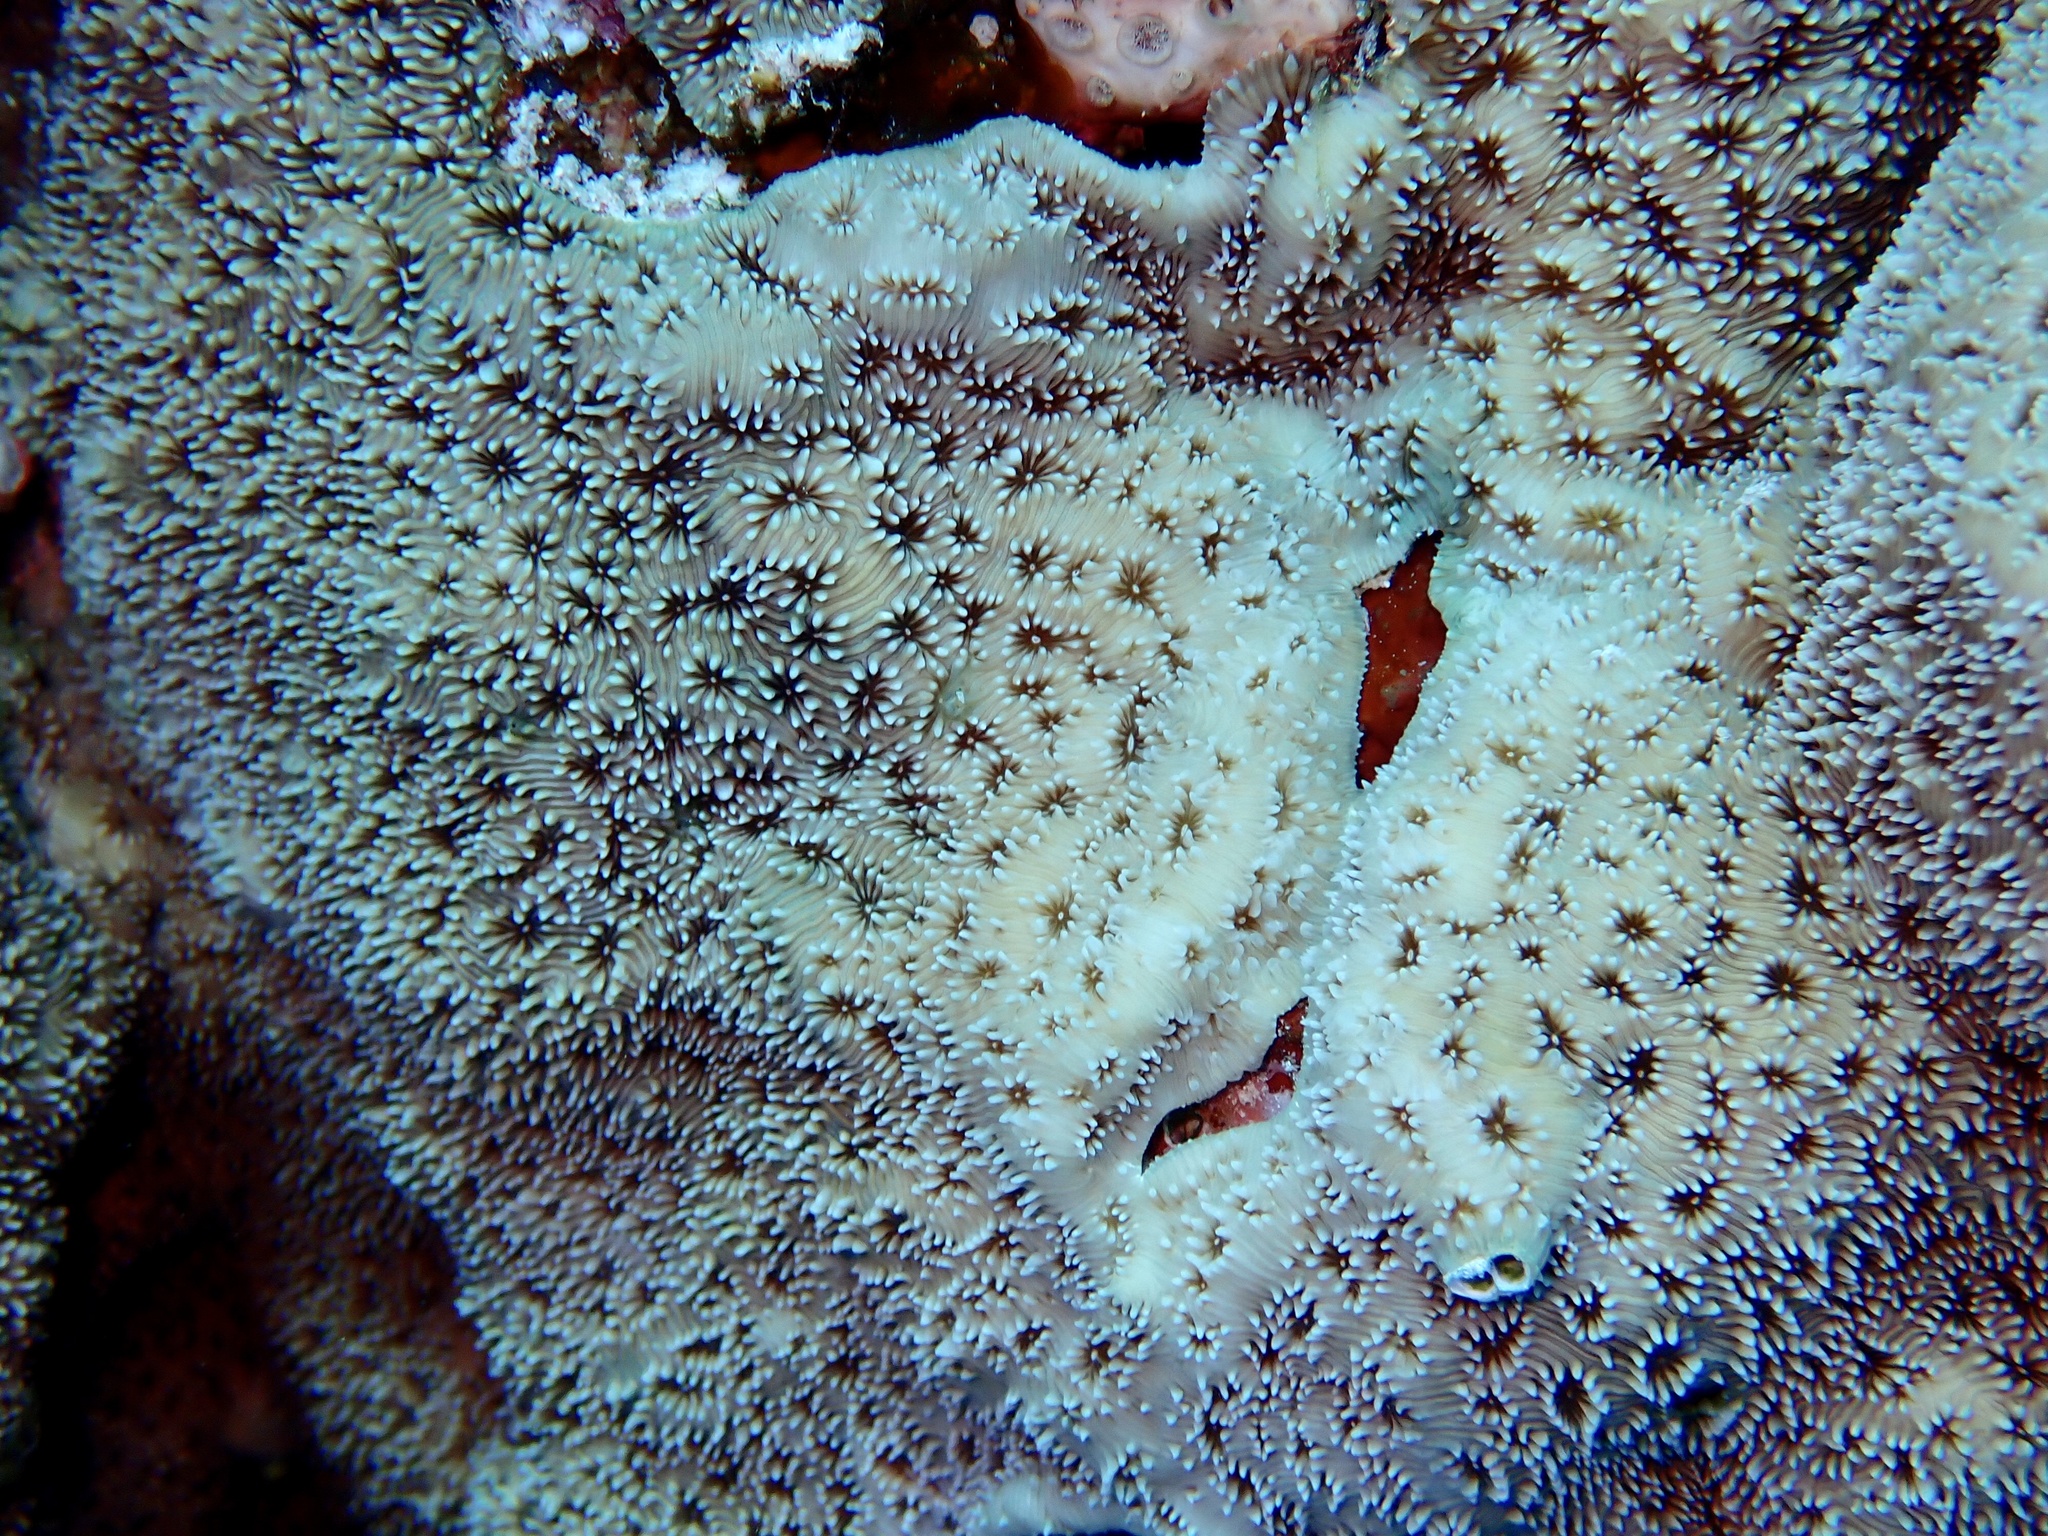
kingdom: Animalia
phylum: Cnidaria
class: Anthozoa
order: Scleractinia
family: Agariciidae
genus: Pavona
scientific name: Pavona explanulata
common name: Leaf coral
